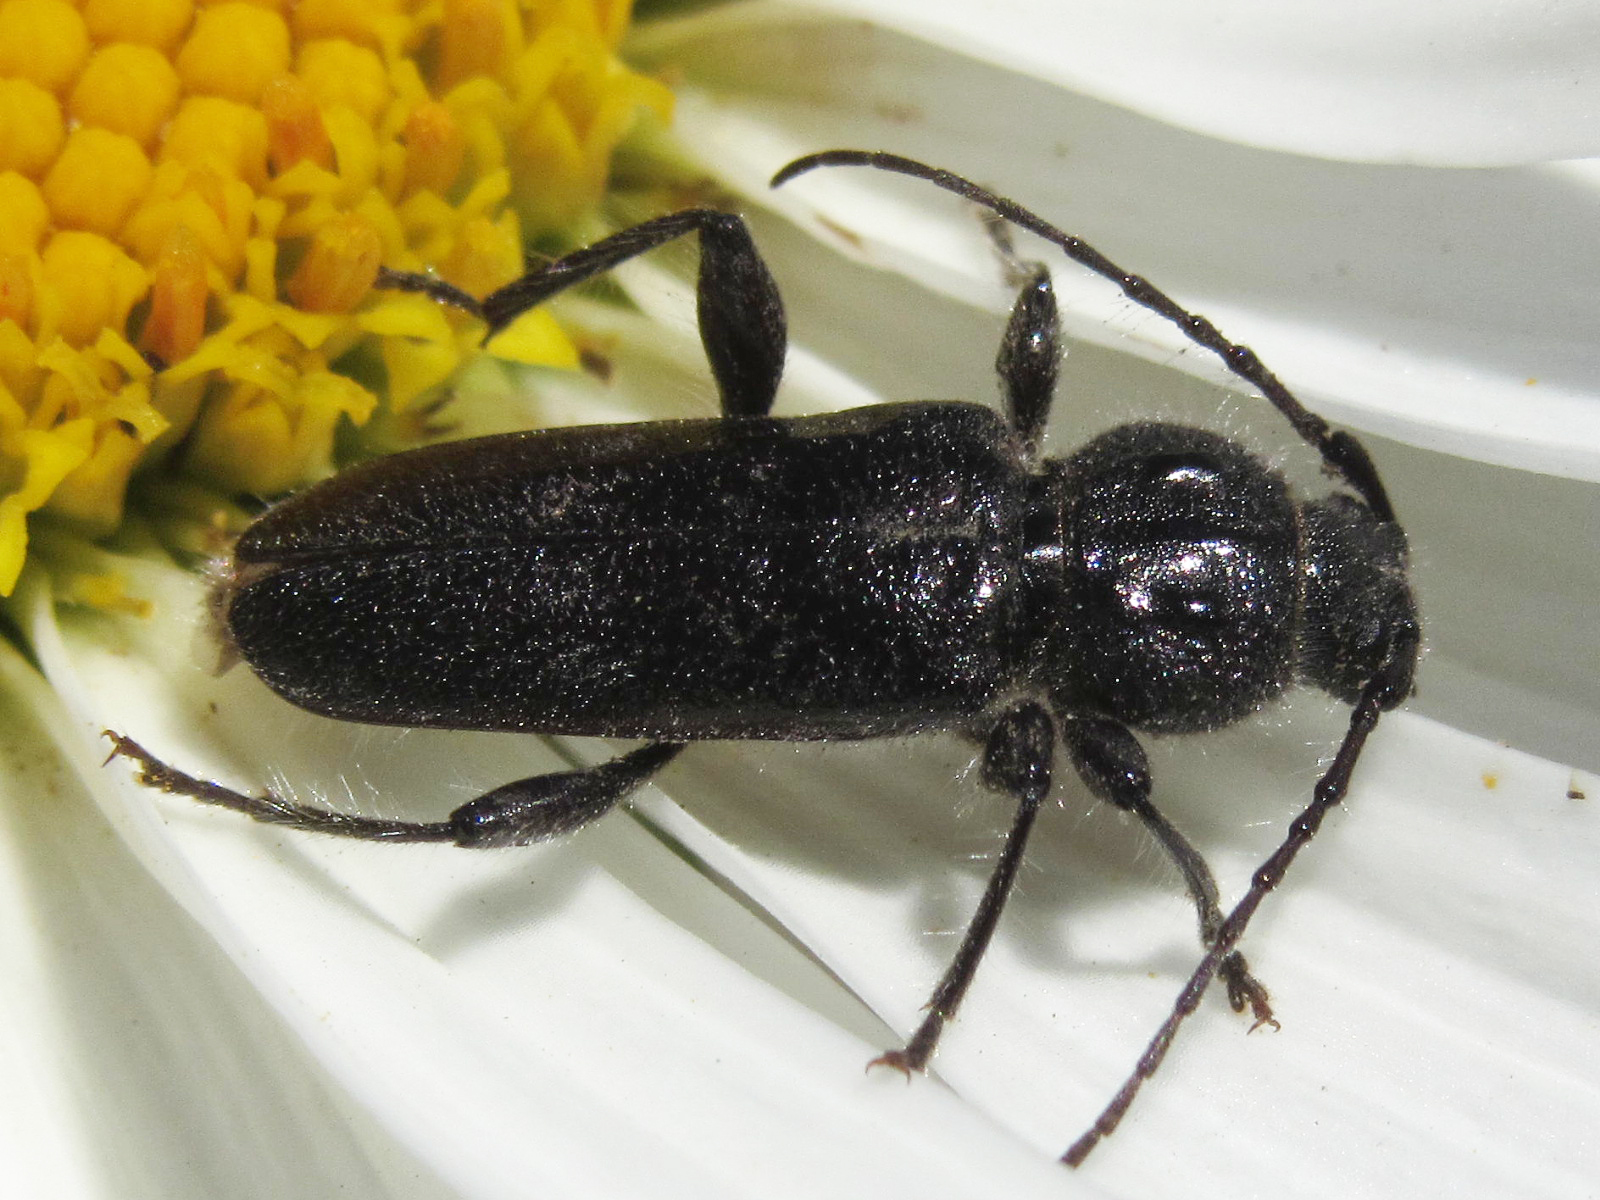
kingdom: Animalia
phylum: Arthropoda
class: Insecta
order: Coleoptera
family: Cerambycidae
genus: Hylotrupes
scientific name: Hylotrupes bajulus
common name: Old house borer
